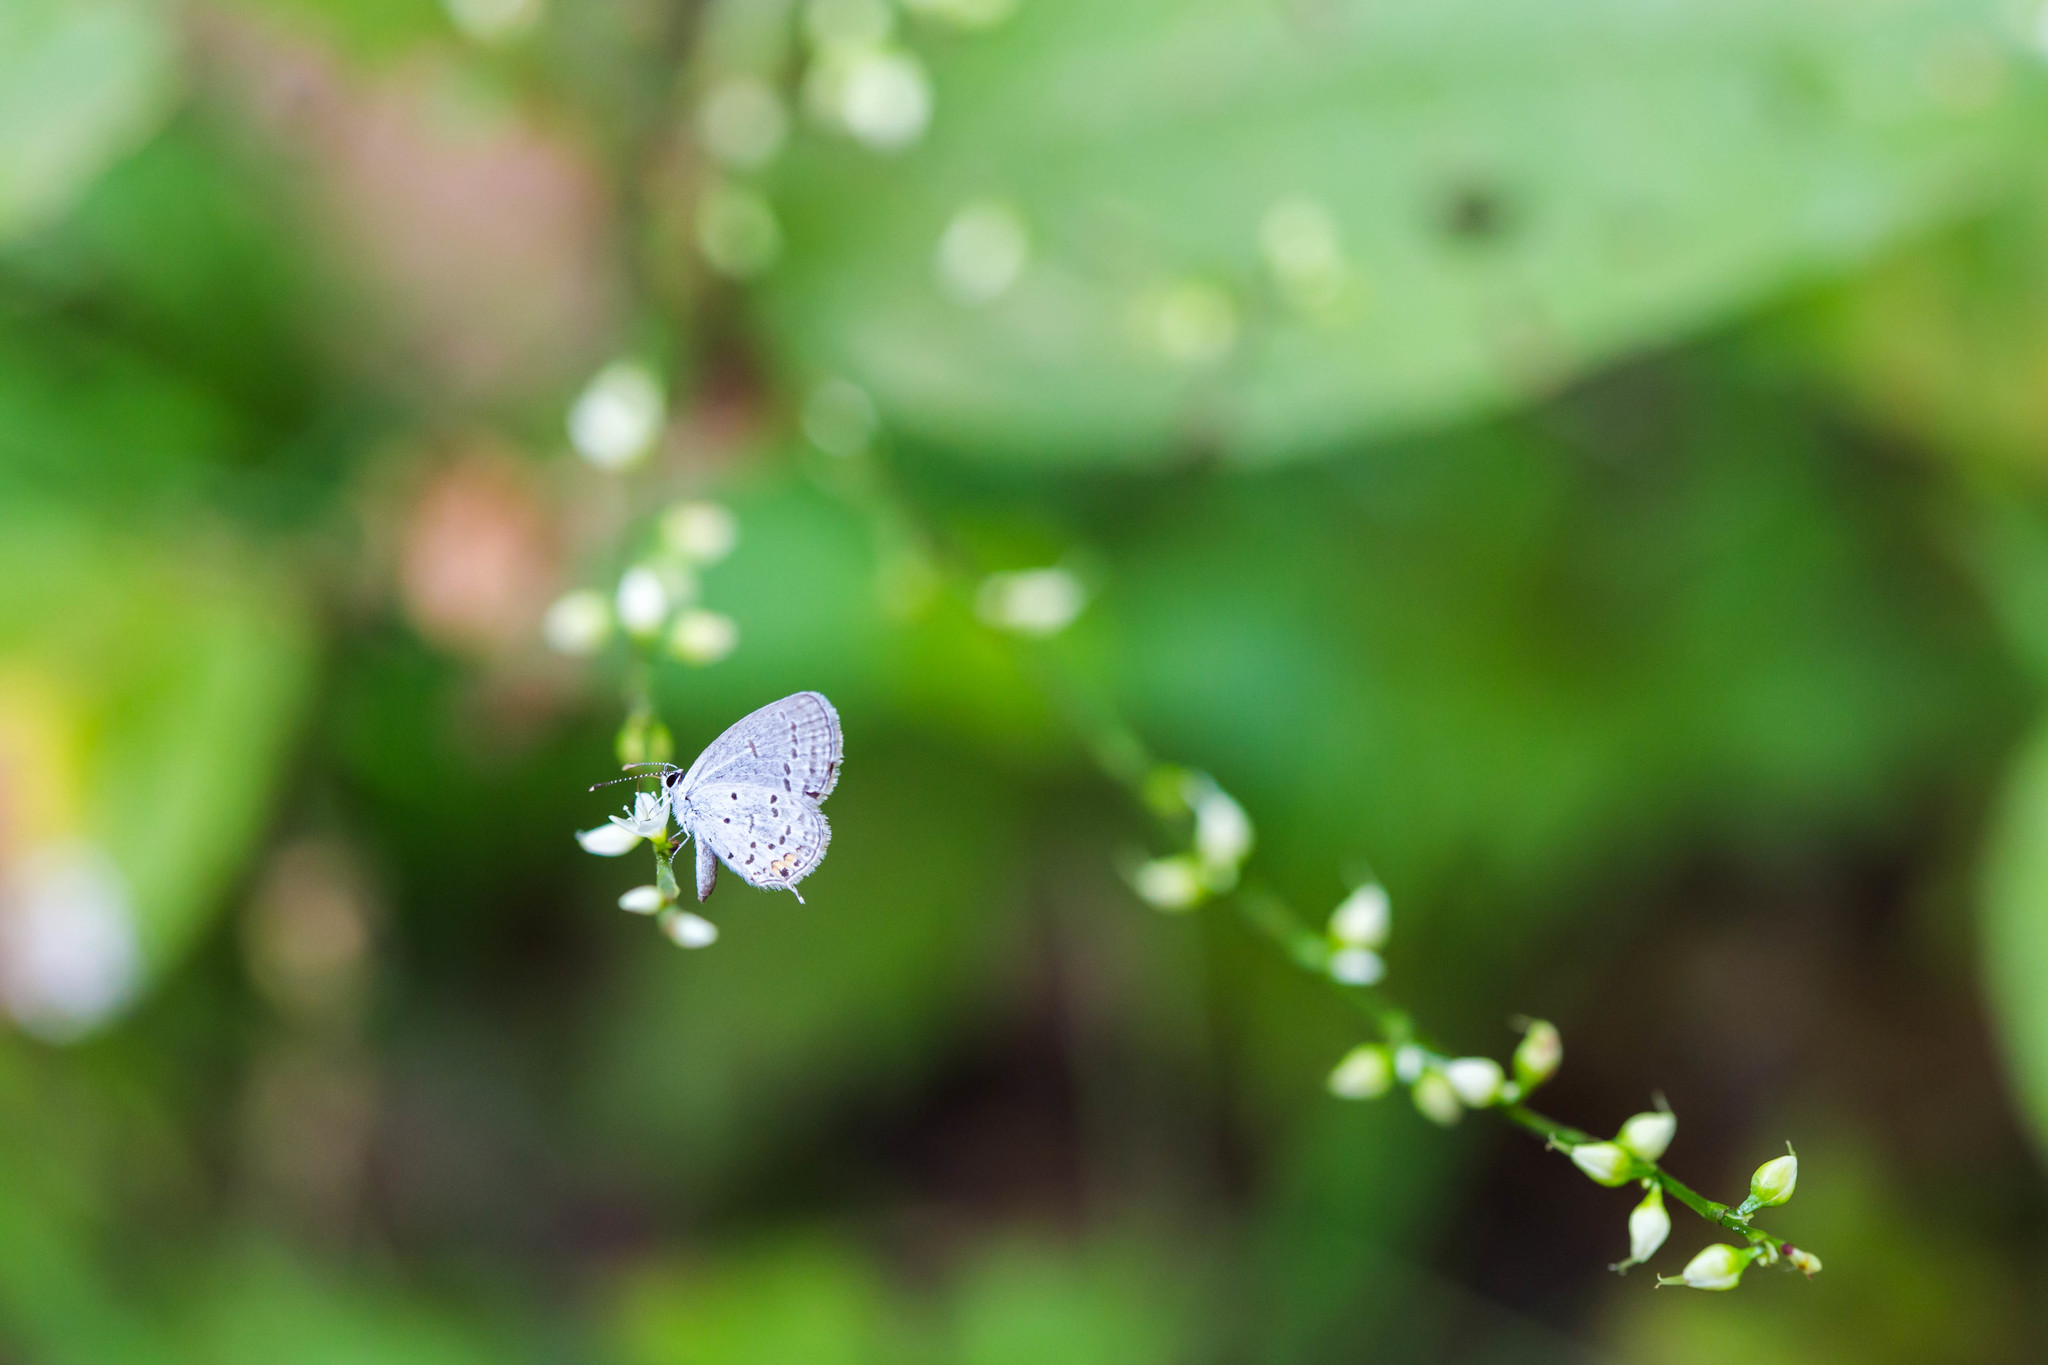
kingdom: Animalia
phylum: Arthropoda
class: Insecta
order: Lepidoptera
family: Lycaenidae
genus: Elkalyce
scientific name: Elkalyce comyntas
